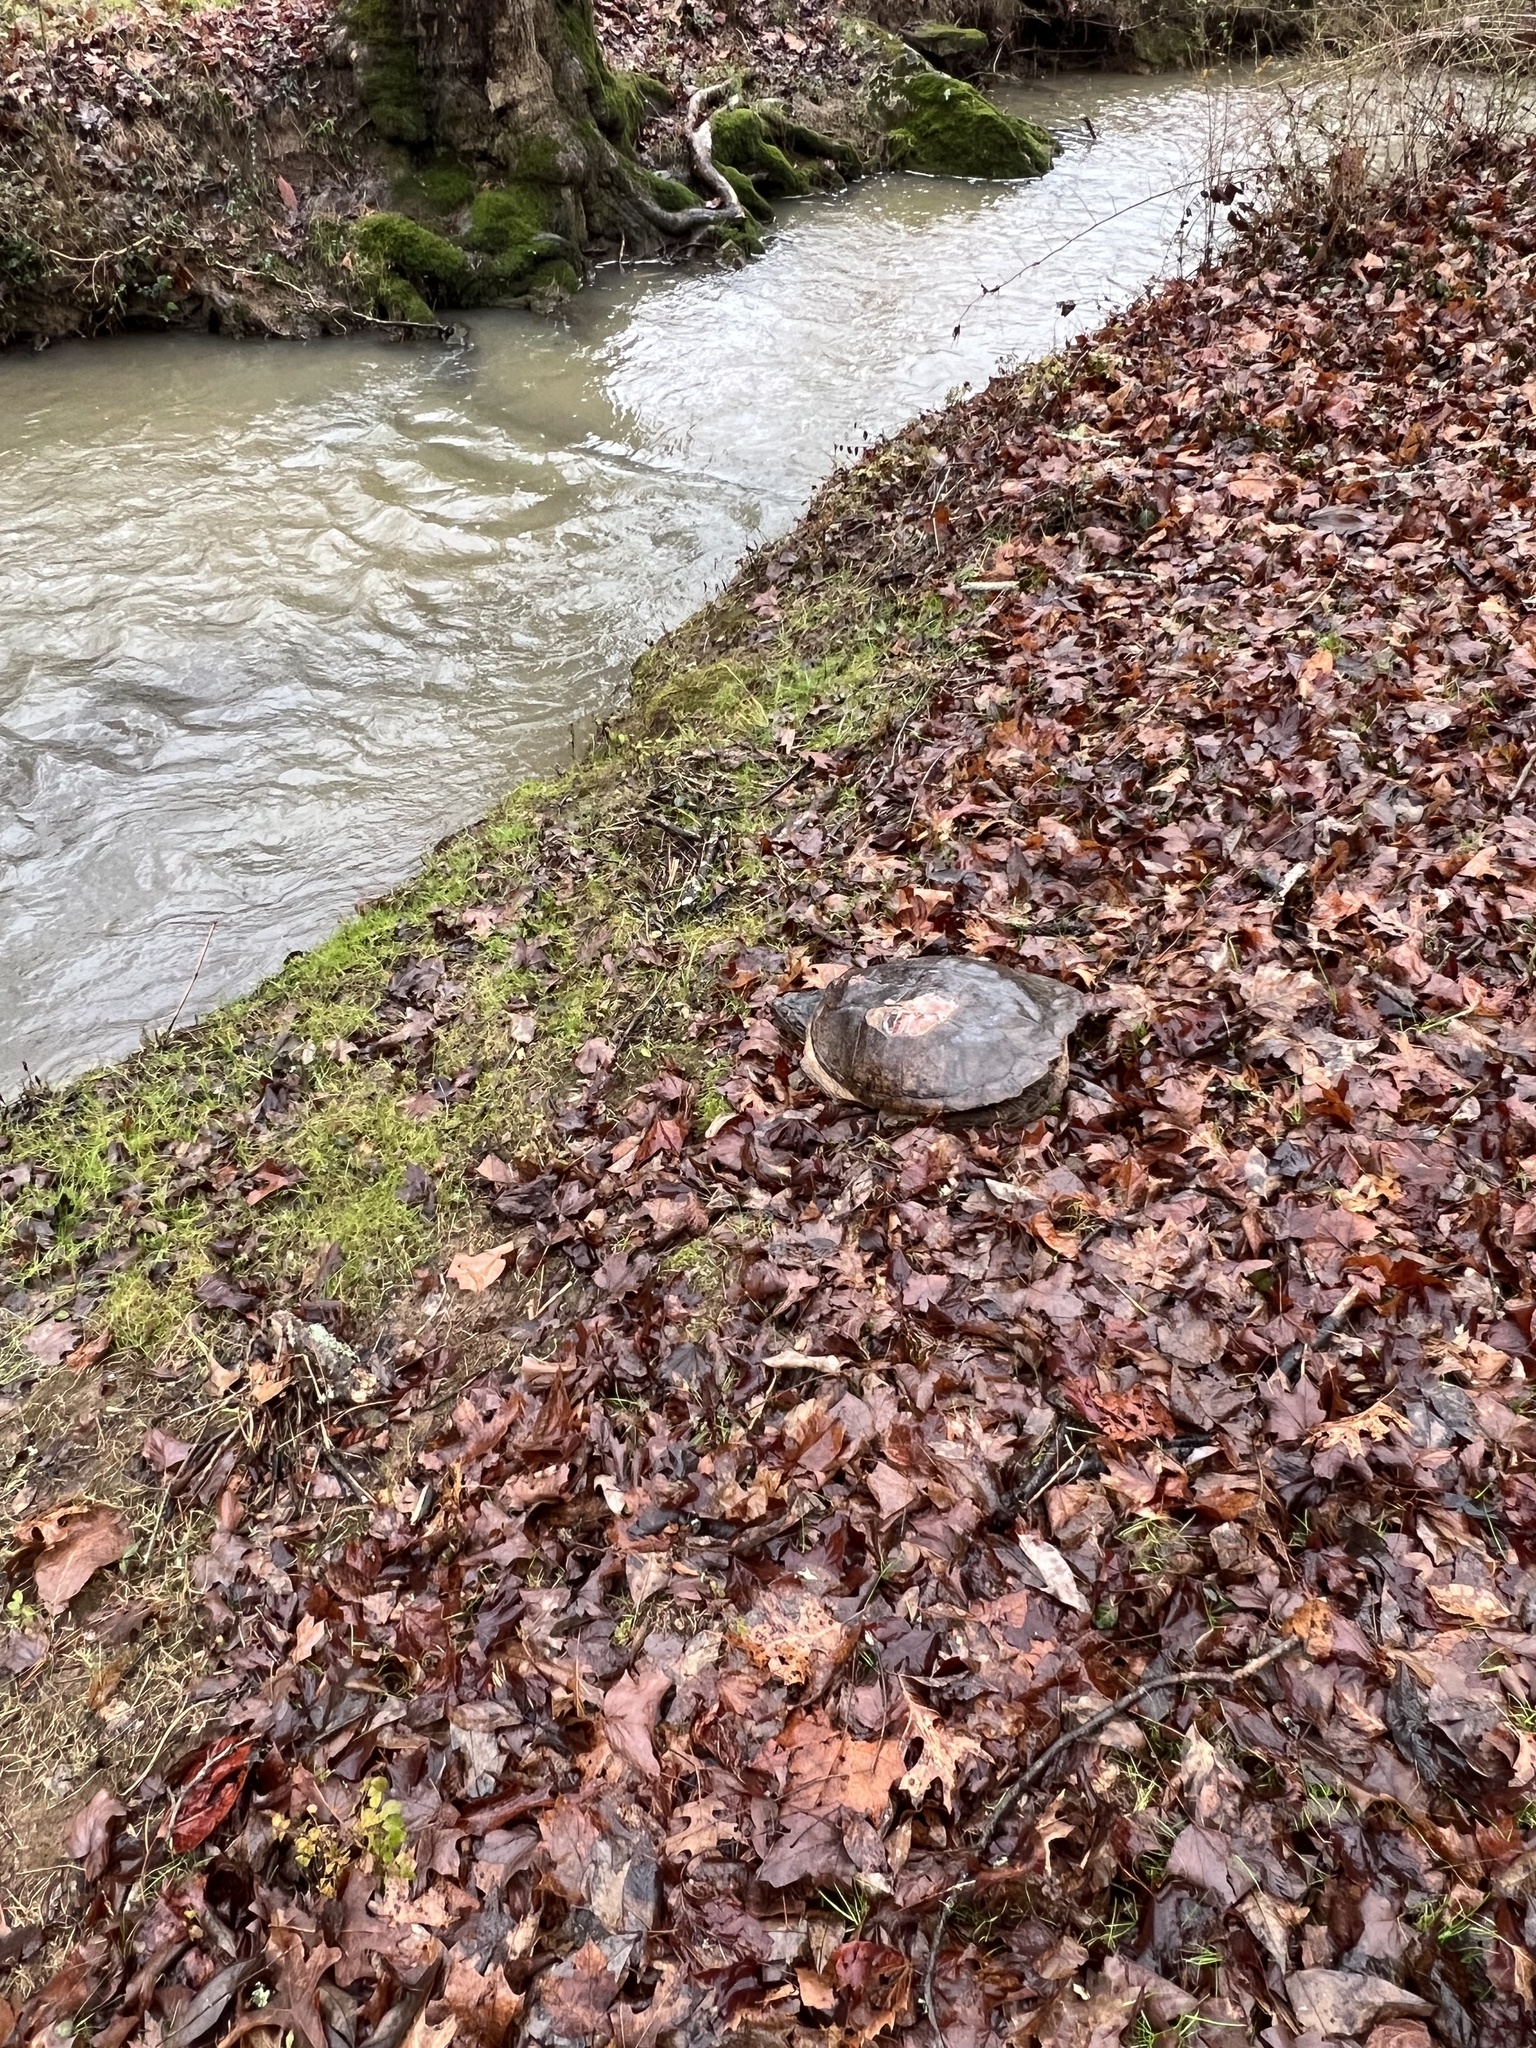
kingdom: Animalia
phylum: Chordata
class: Testudines
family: Chelydridae
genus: Chelydra
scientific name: Chelydra serpentina
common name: Common snapping turtle
